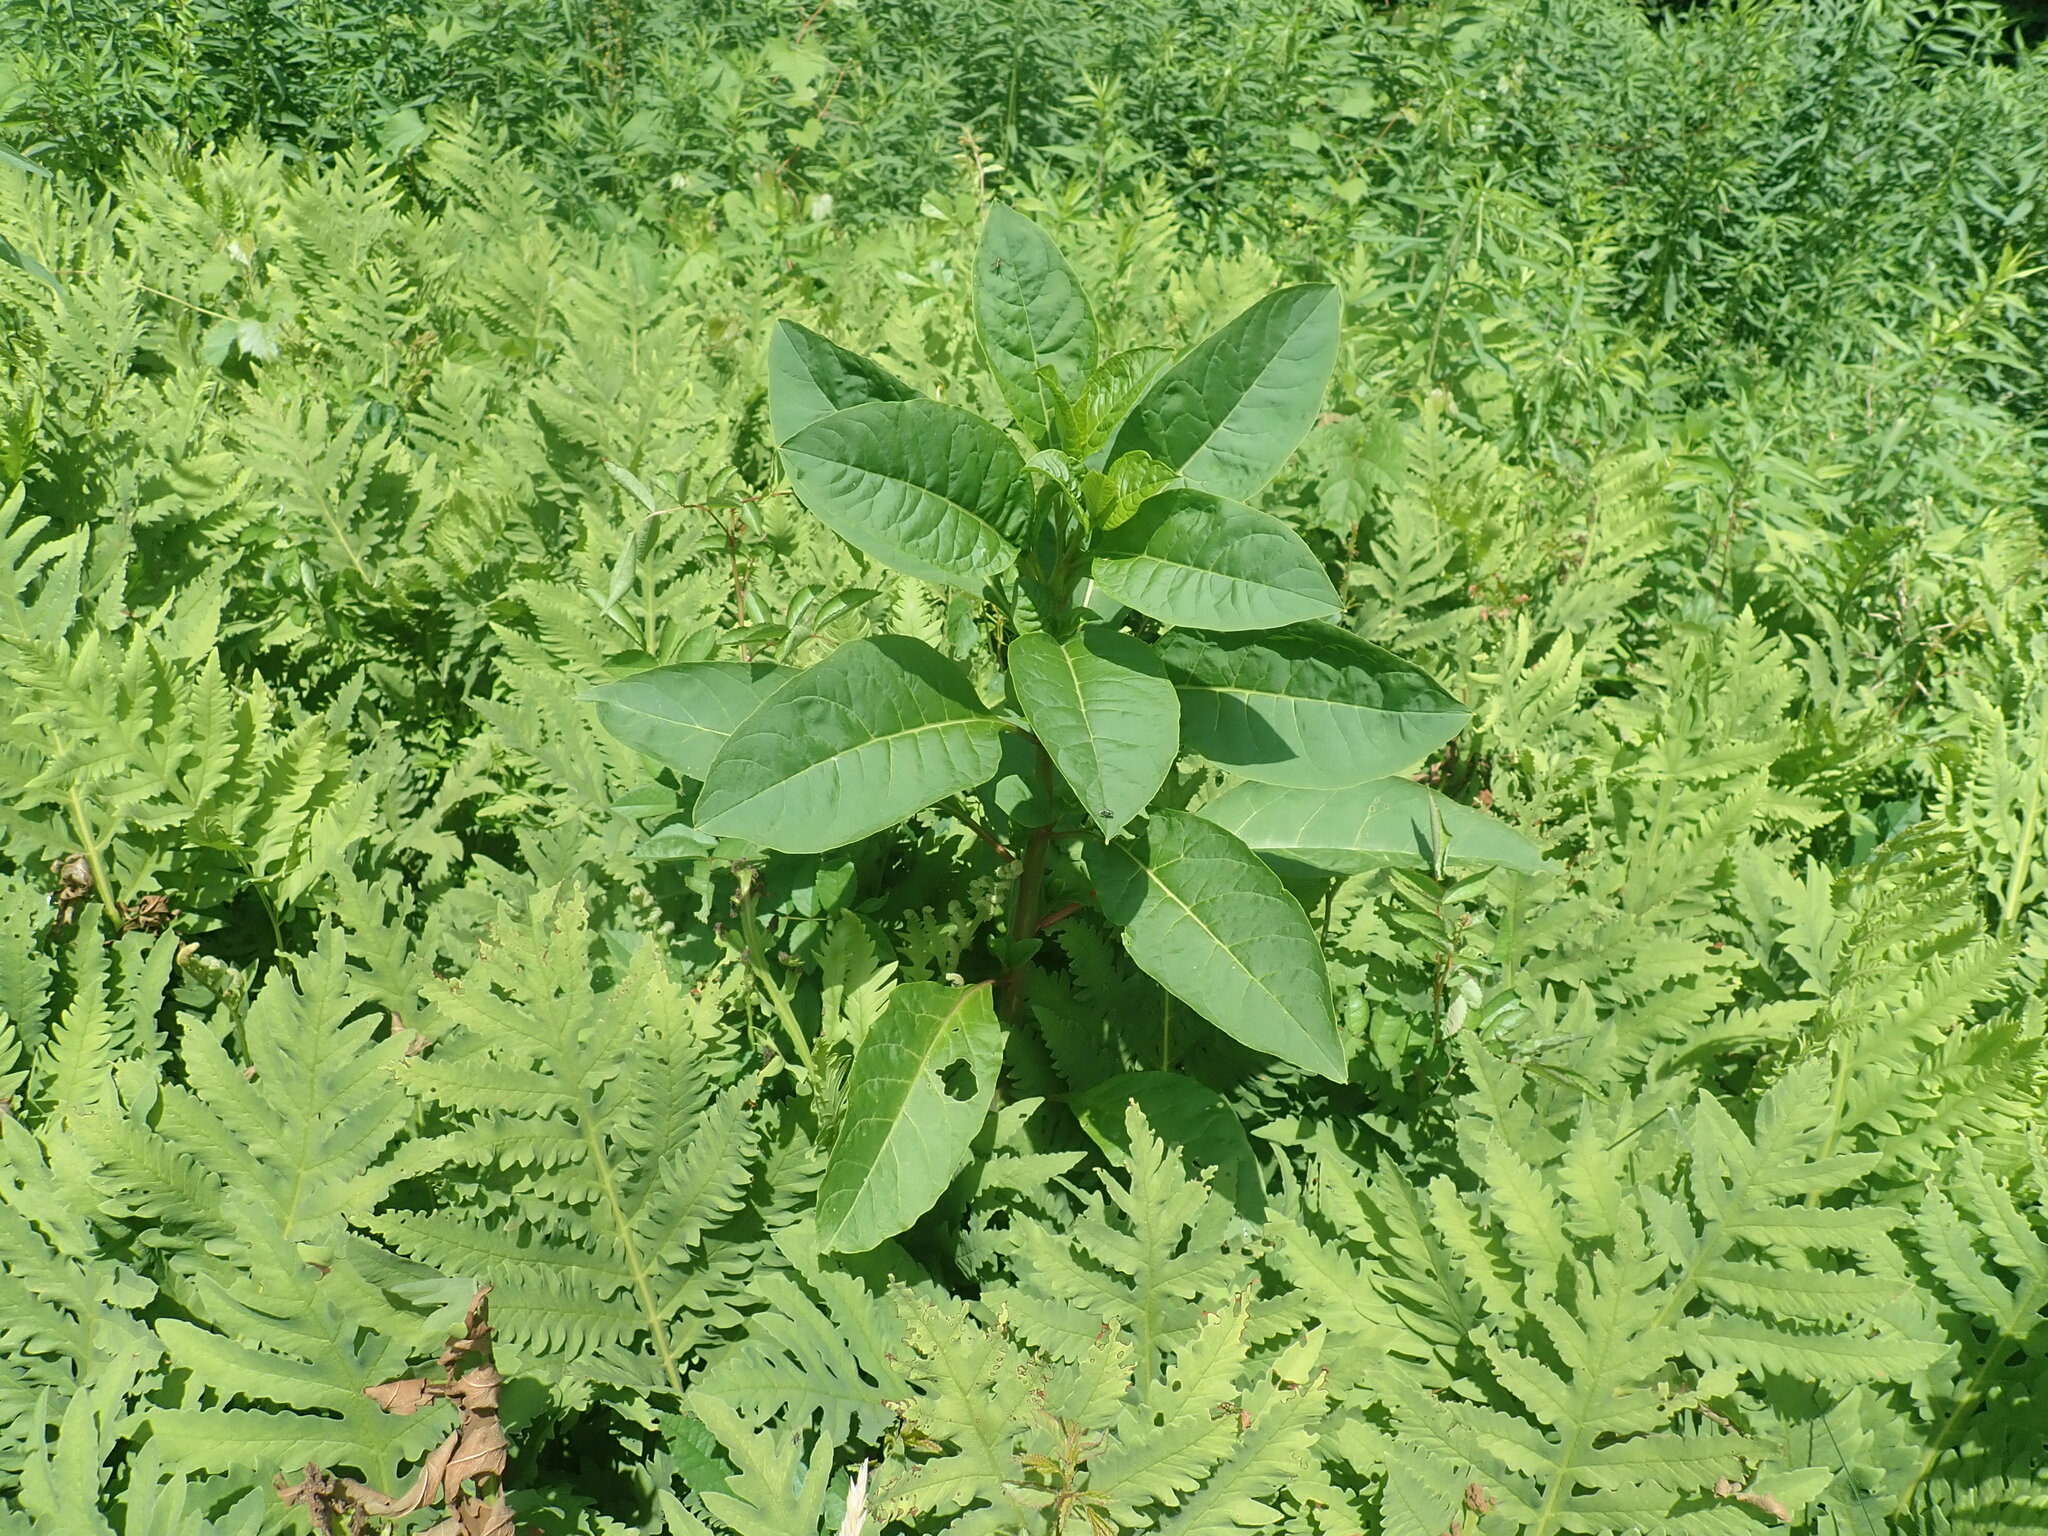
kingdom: Plantae
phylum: Tracheophyta
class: Magnoliopsida
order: Caryophyllales
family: Phytolaccaceae
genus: Phytolacca
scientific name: Phytolacca americana
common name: American pokeweed
